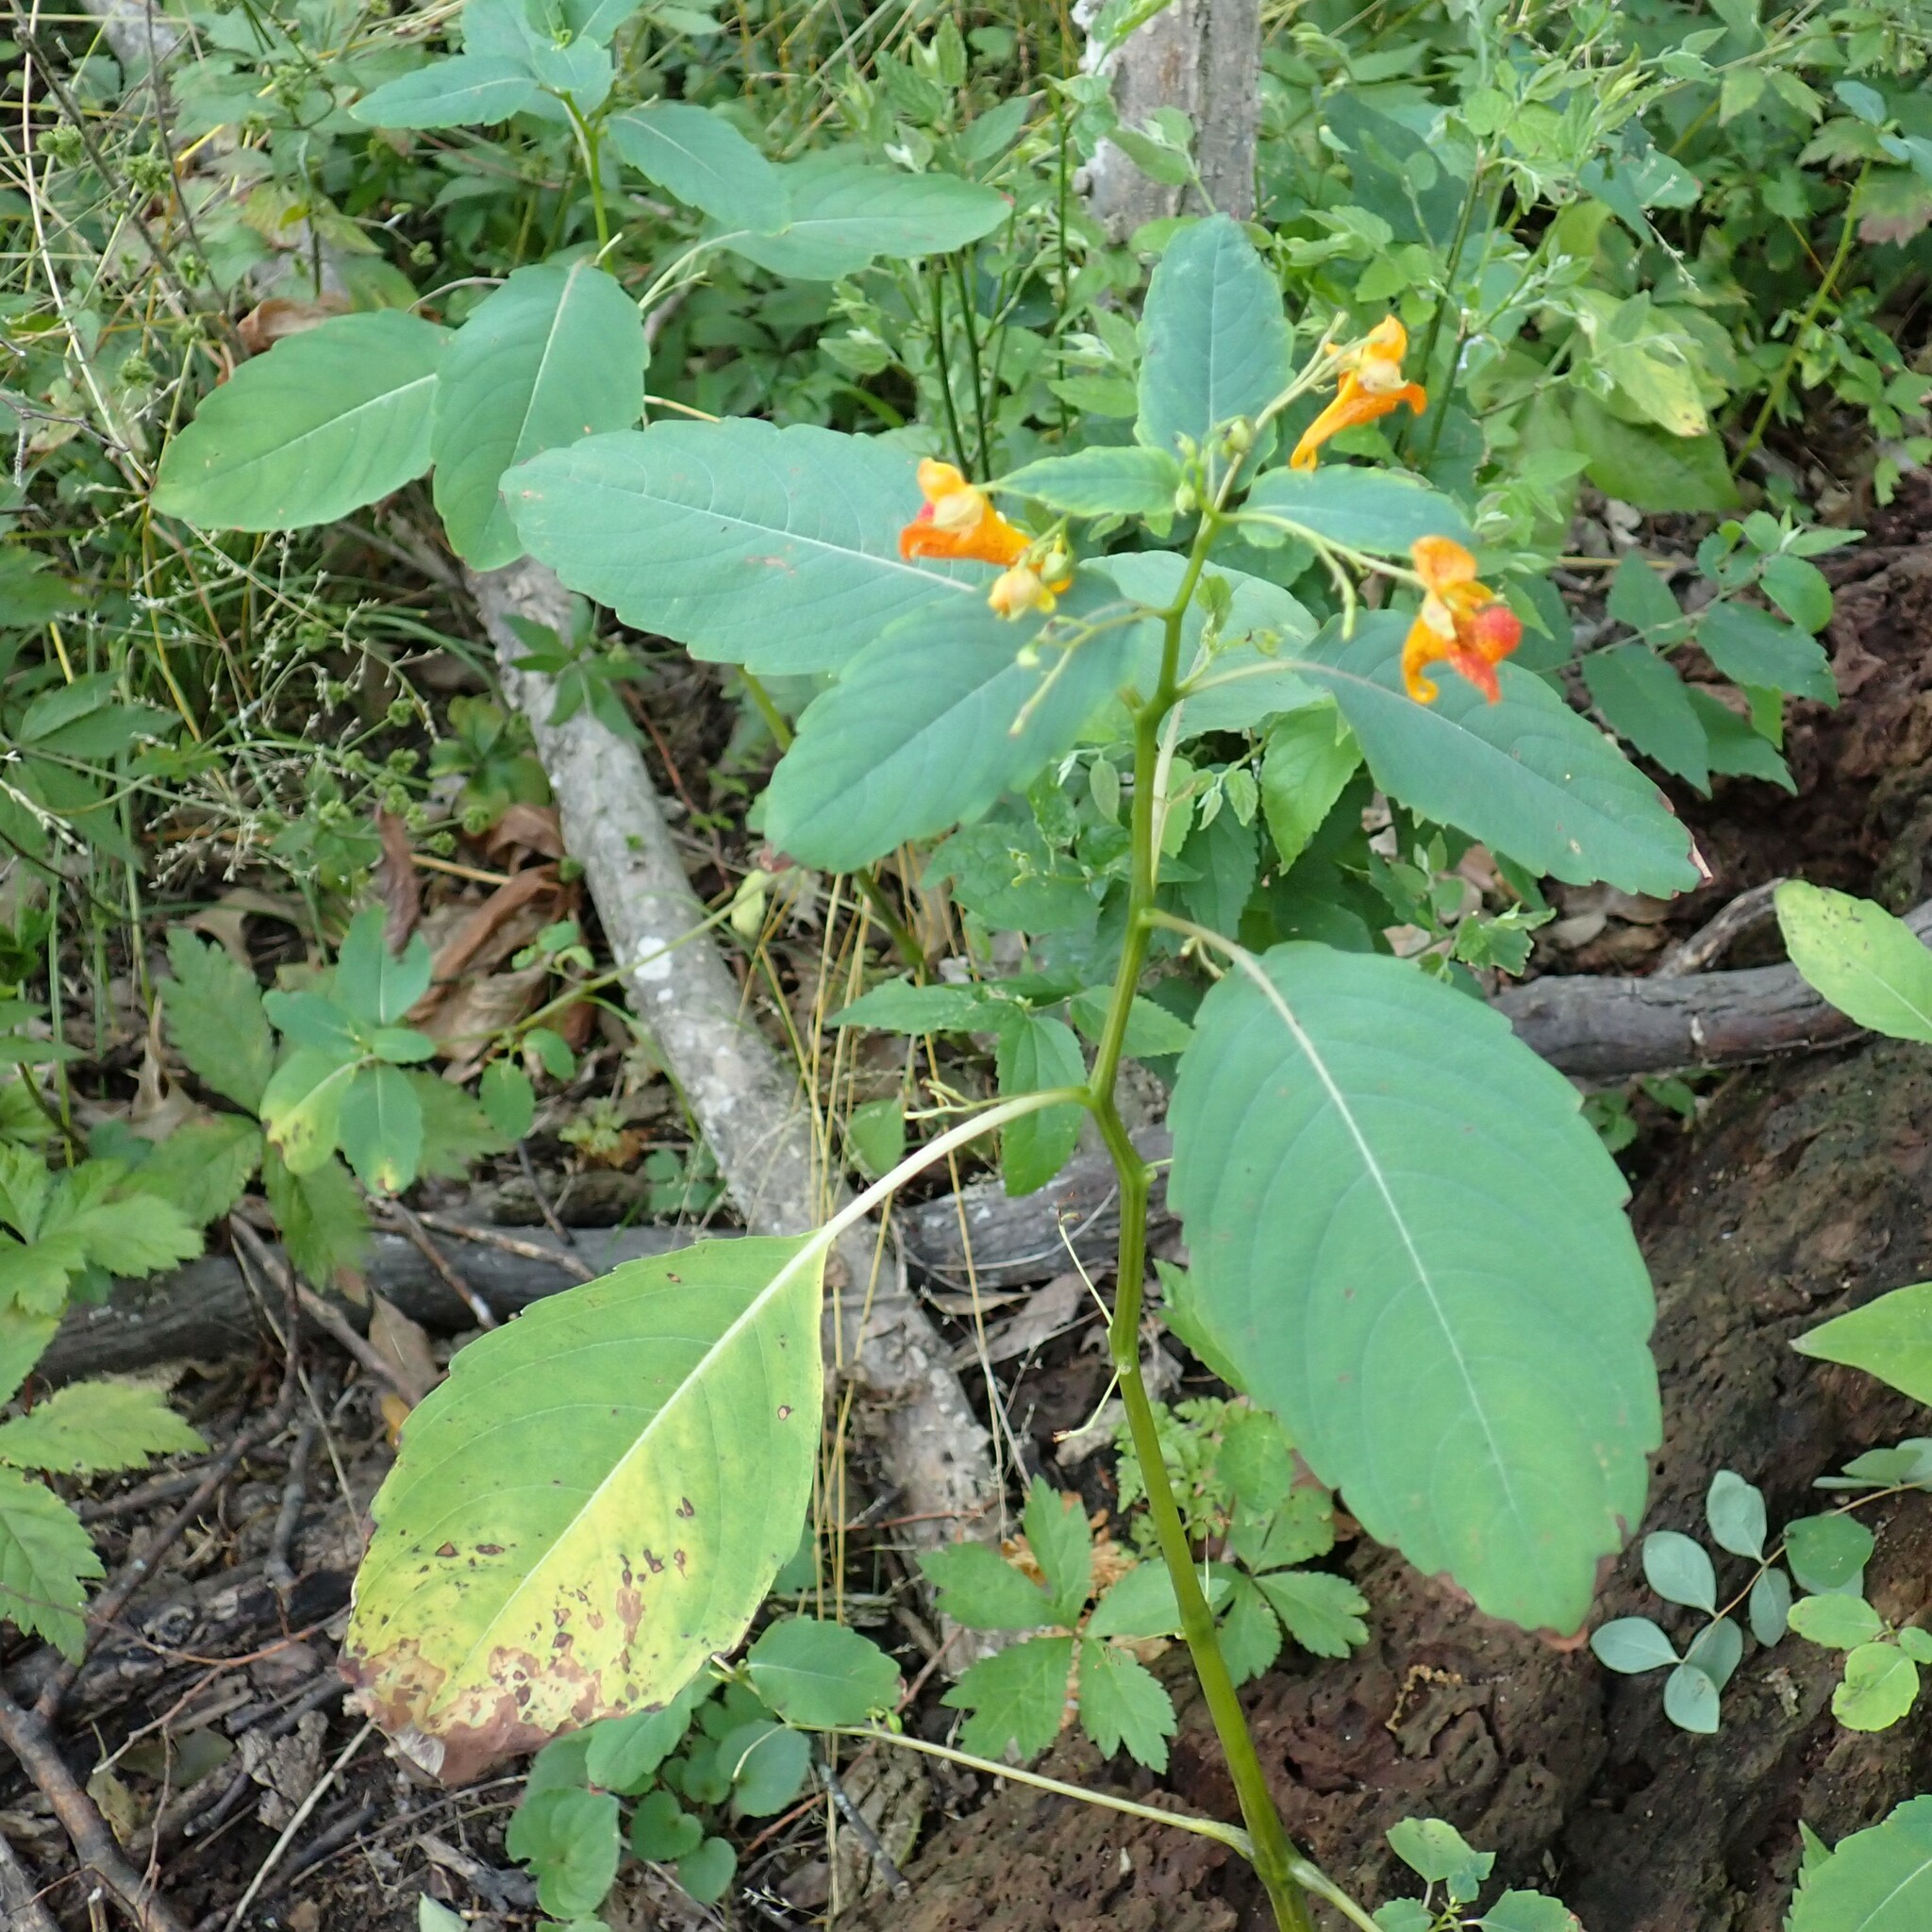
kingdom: Plantae
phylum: Tracheophyta
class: Magnoliopsida
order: Ericales
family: Balsaminaceae
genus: Impatiens
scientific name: Impatiens capensis
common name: Orange balsam
